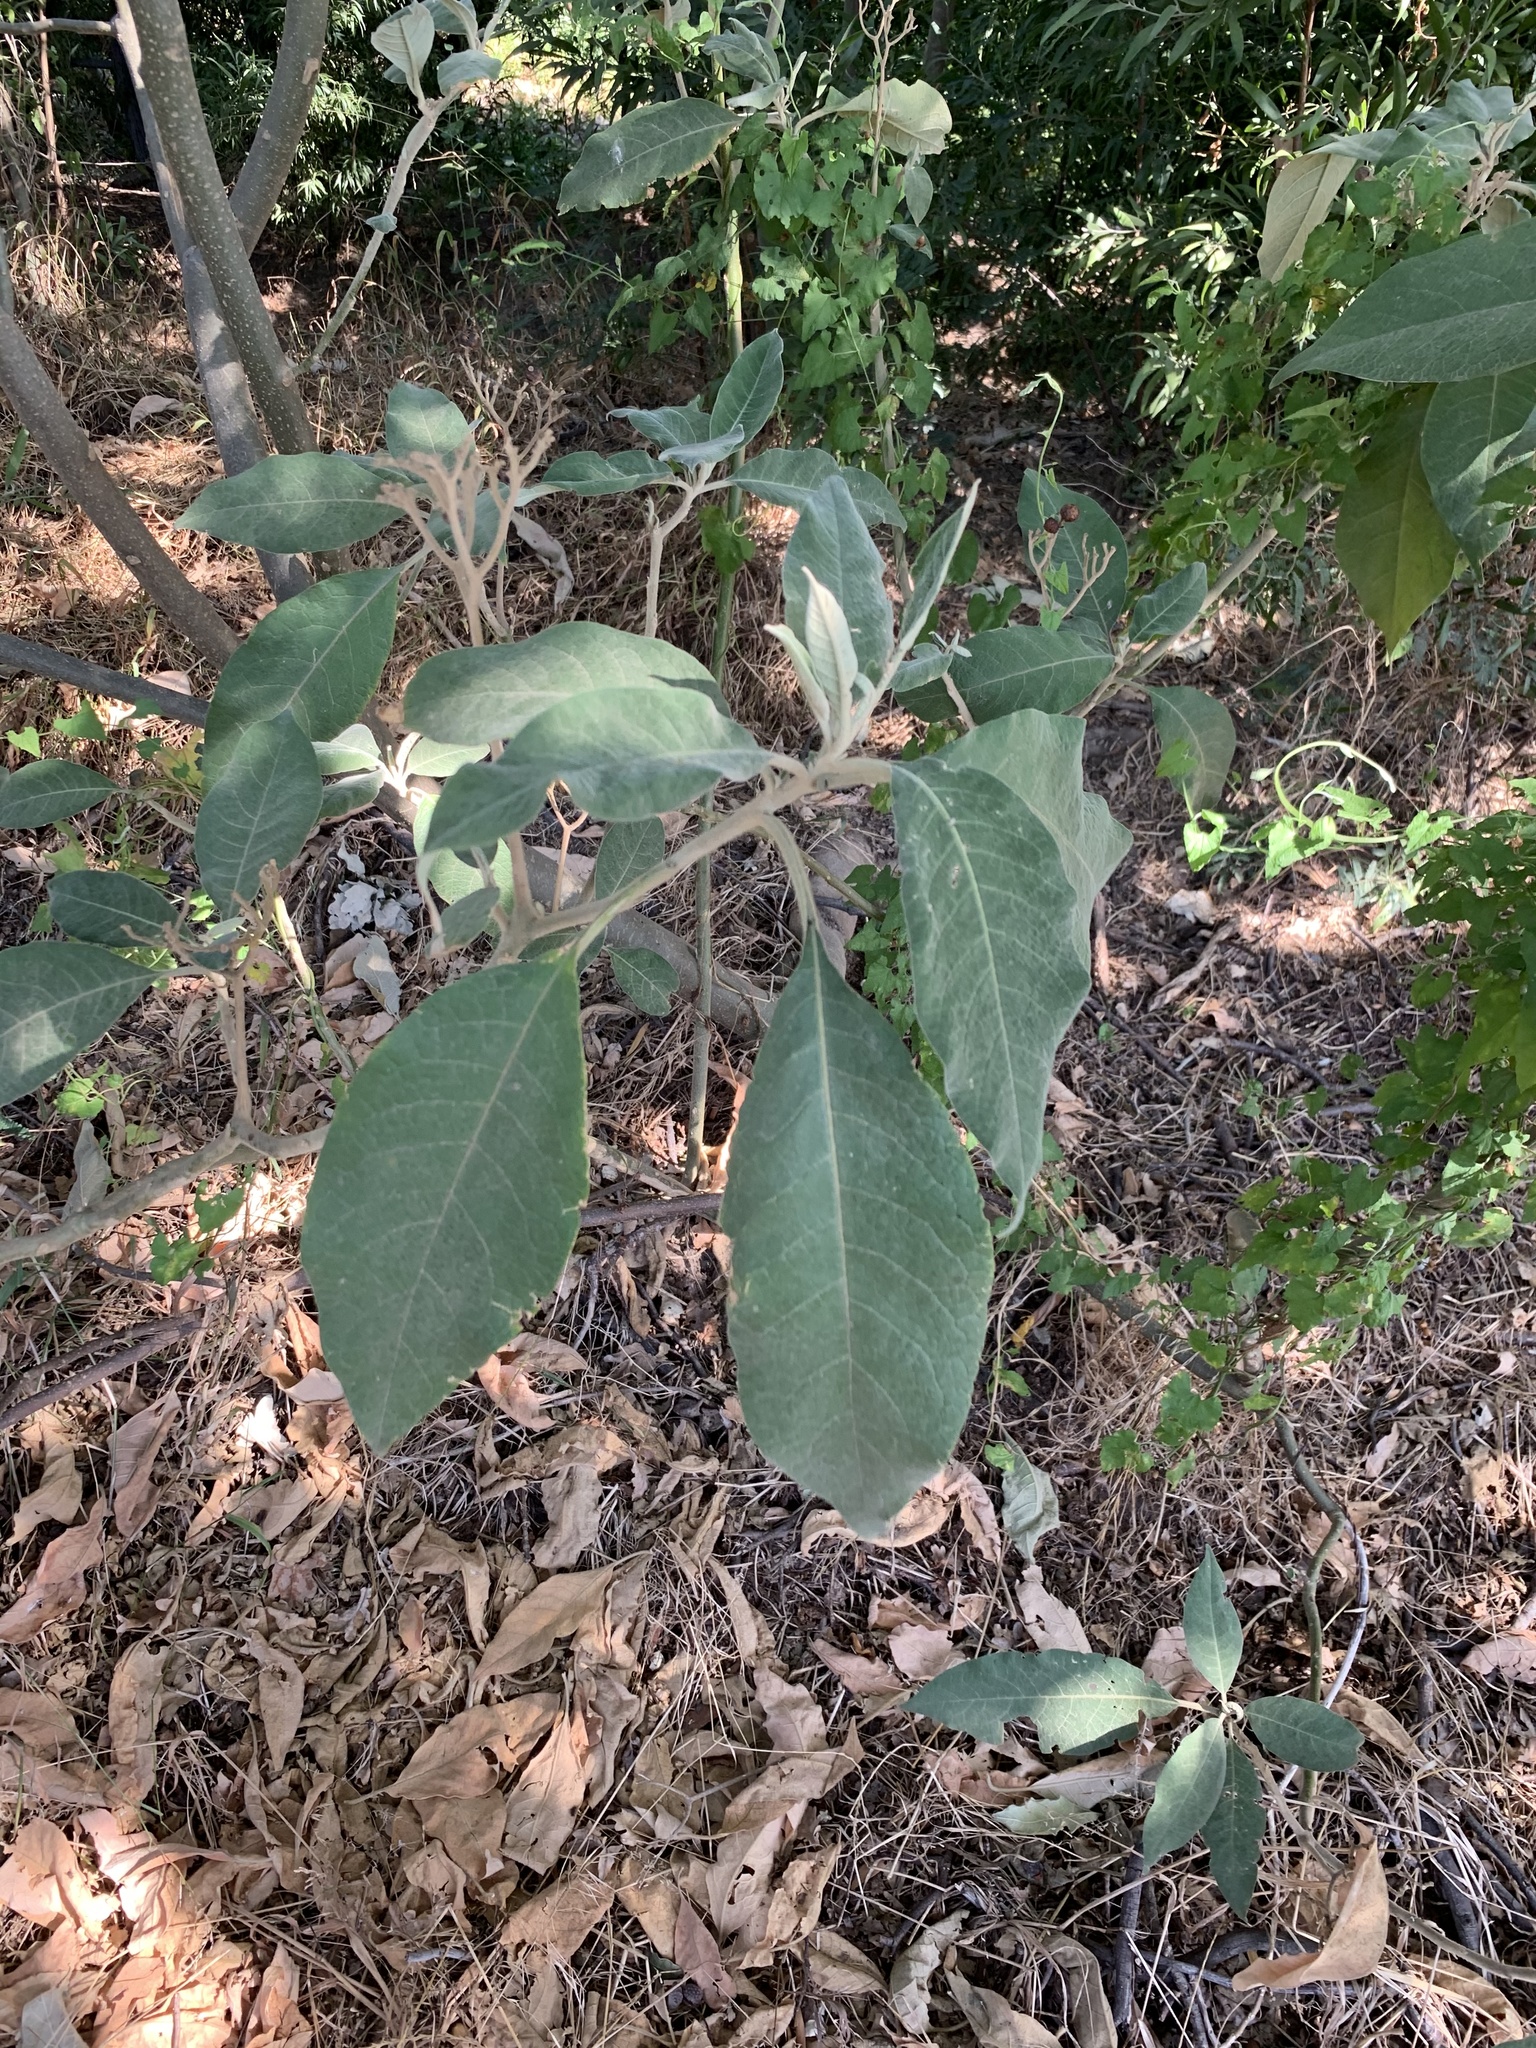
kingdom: Plantae
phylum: Tracheophyta
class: Magnoliopsida
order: Solanales
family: Solanaceae
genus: Solanum
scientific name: Solanum mauritianum
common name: Earleaf nightshade
